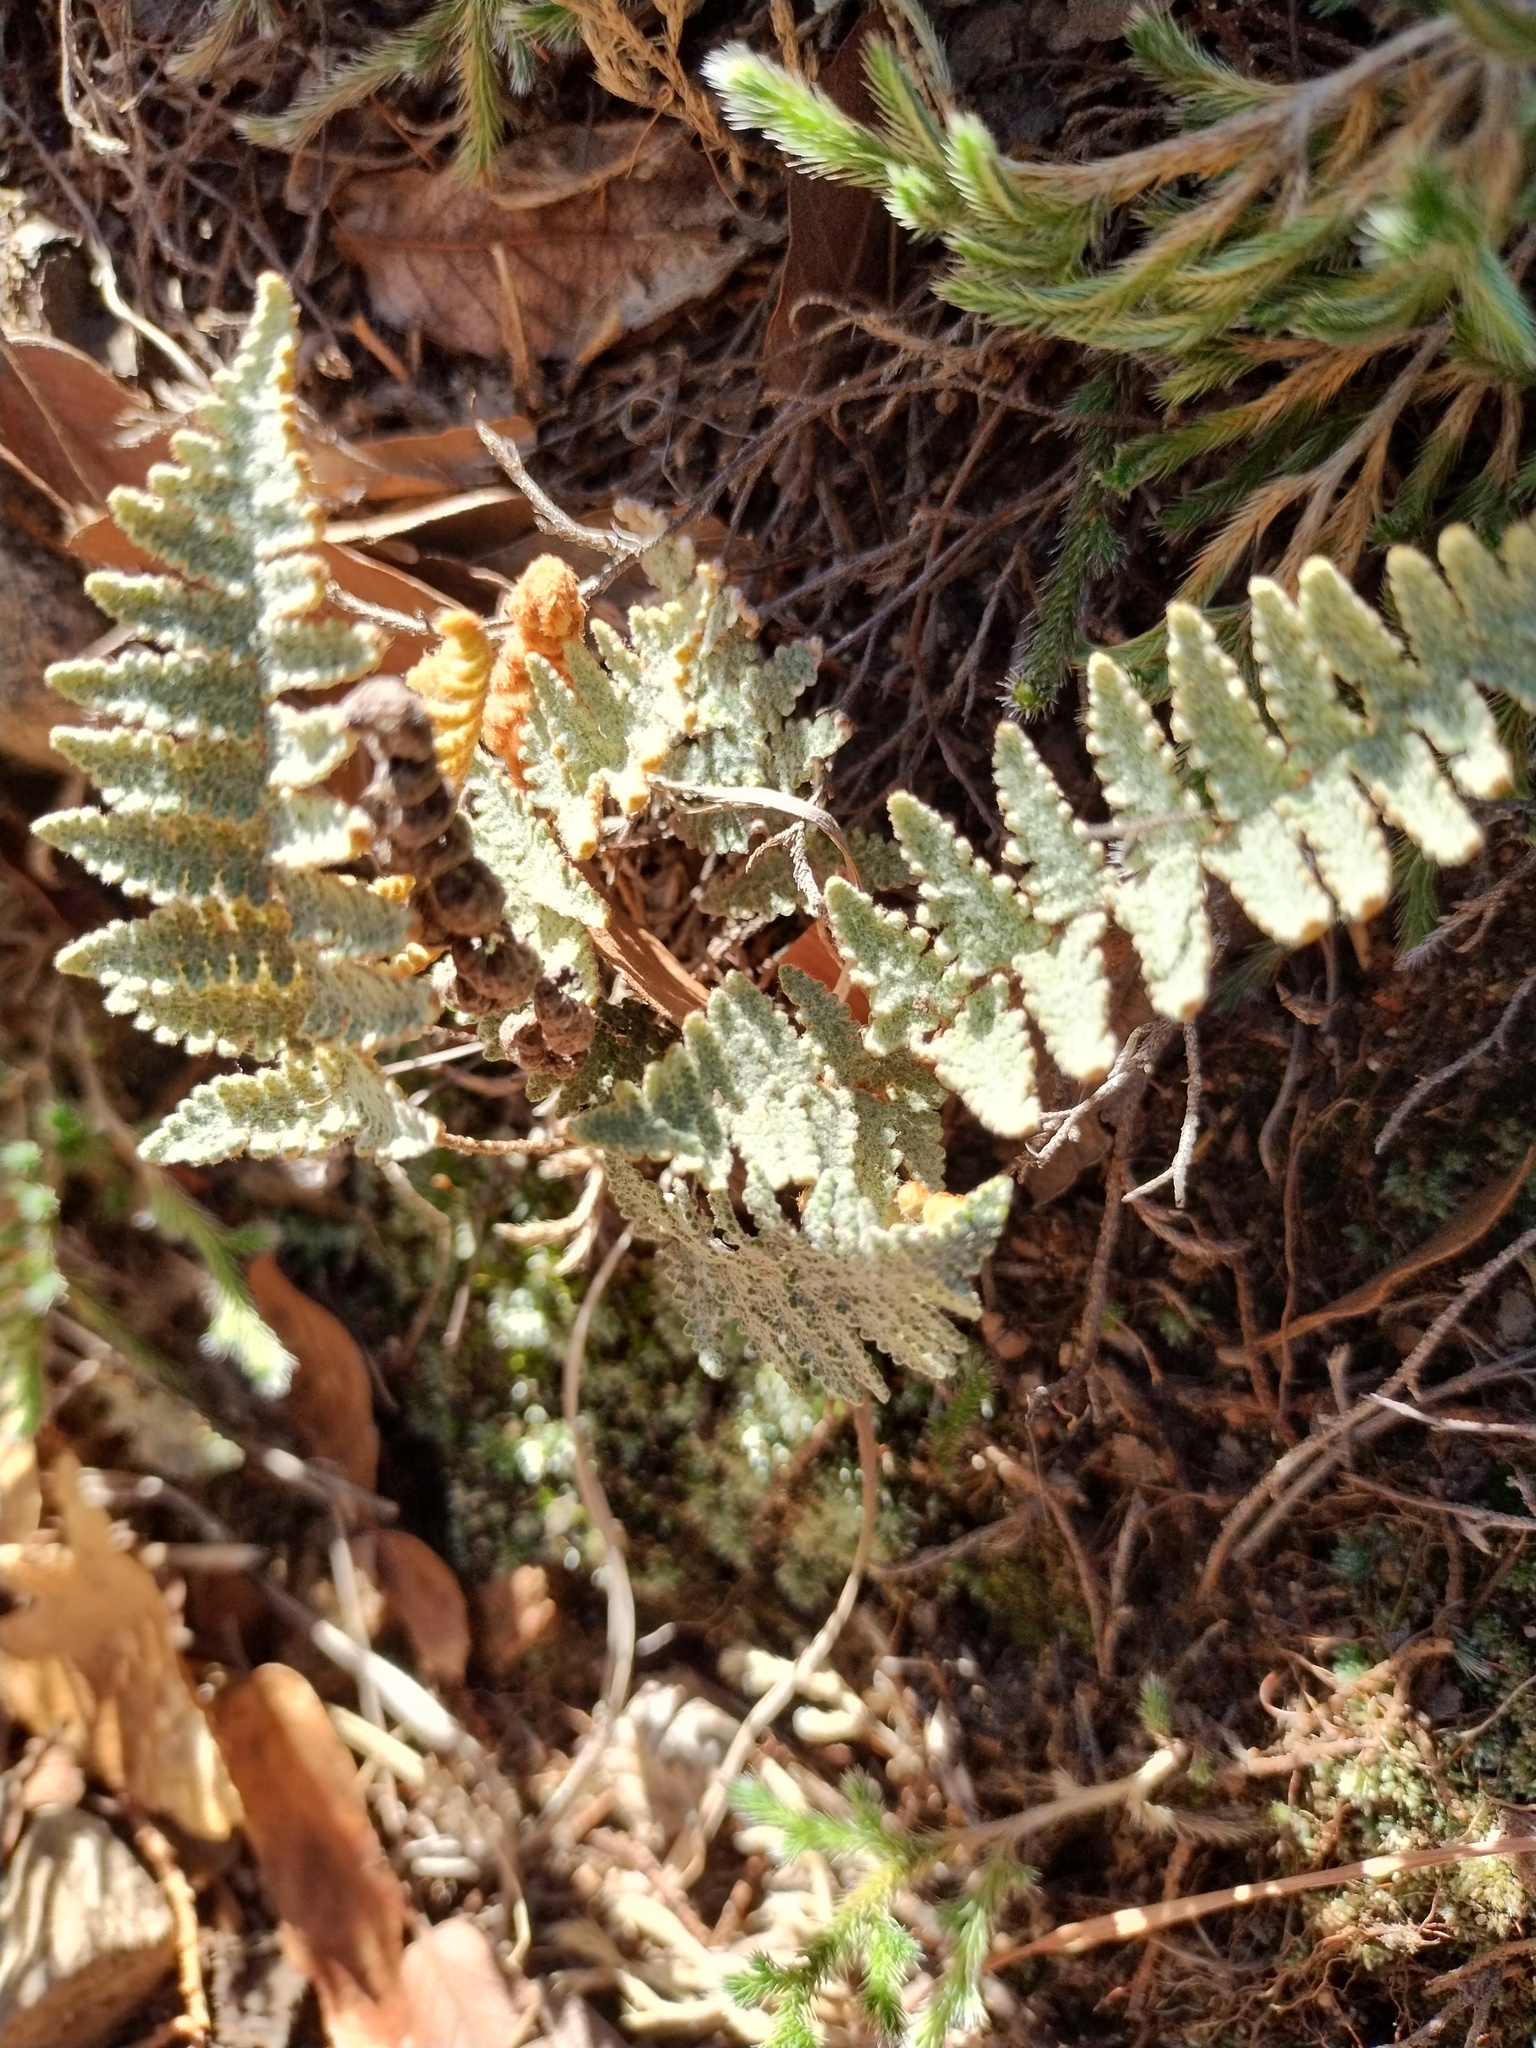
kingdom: Plantae
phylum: Tracheophyta
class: Polypodiopsida
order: Polypodiales
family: Pteridaceae
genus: Myriopteris
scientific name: Myriopteris lindheimeri
